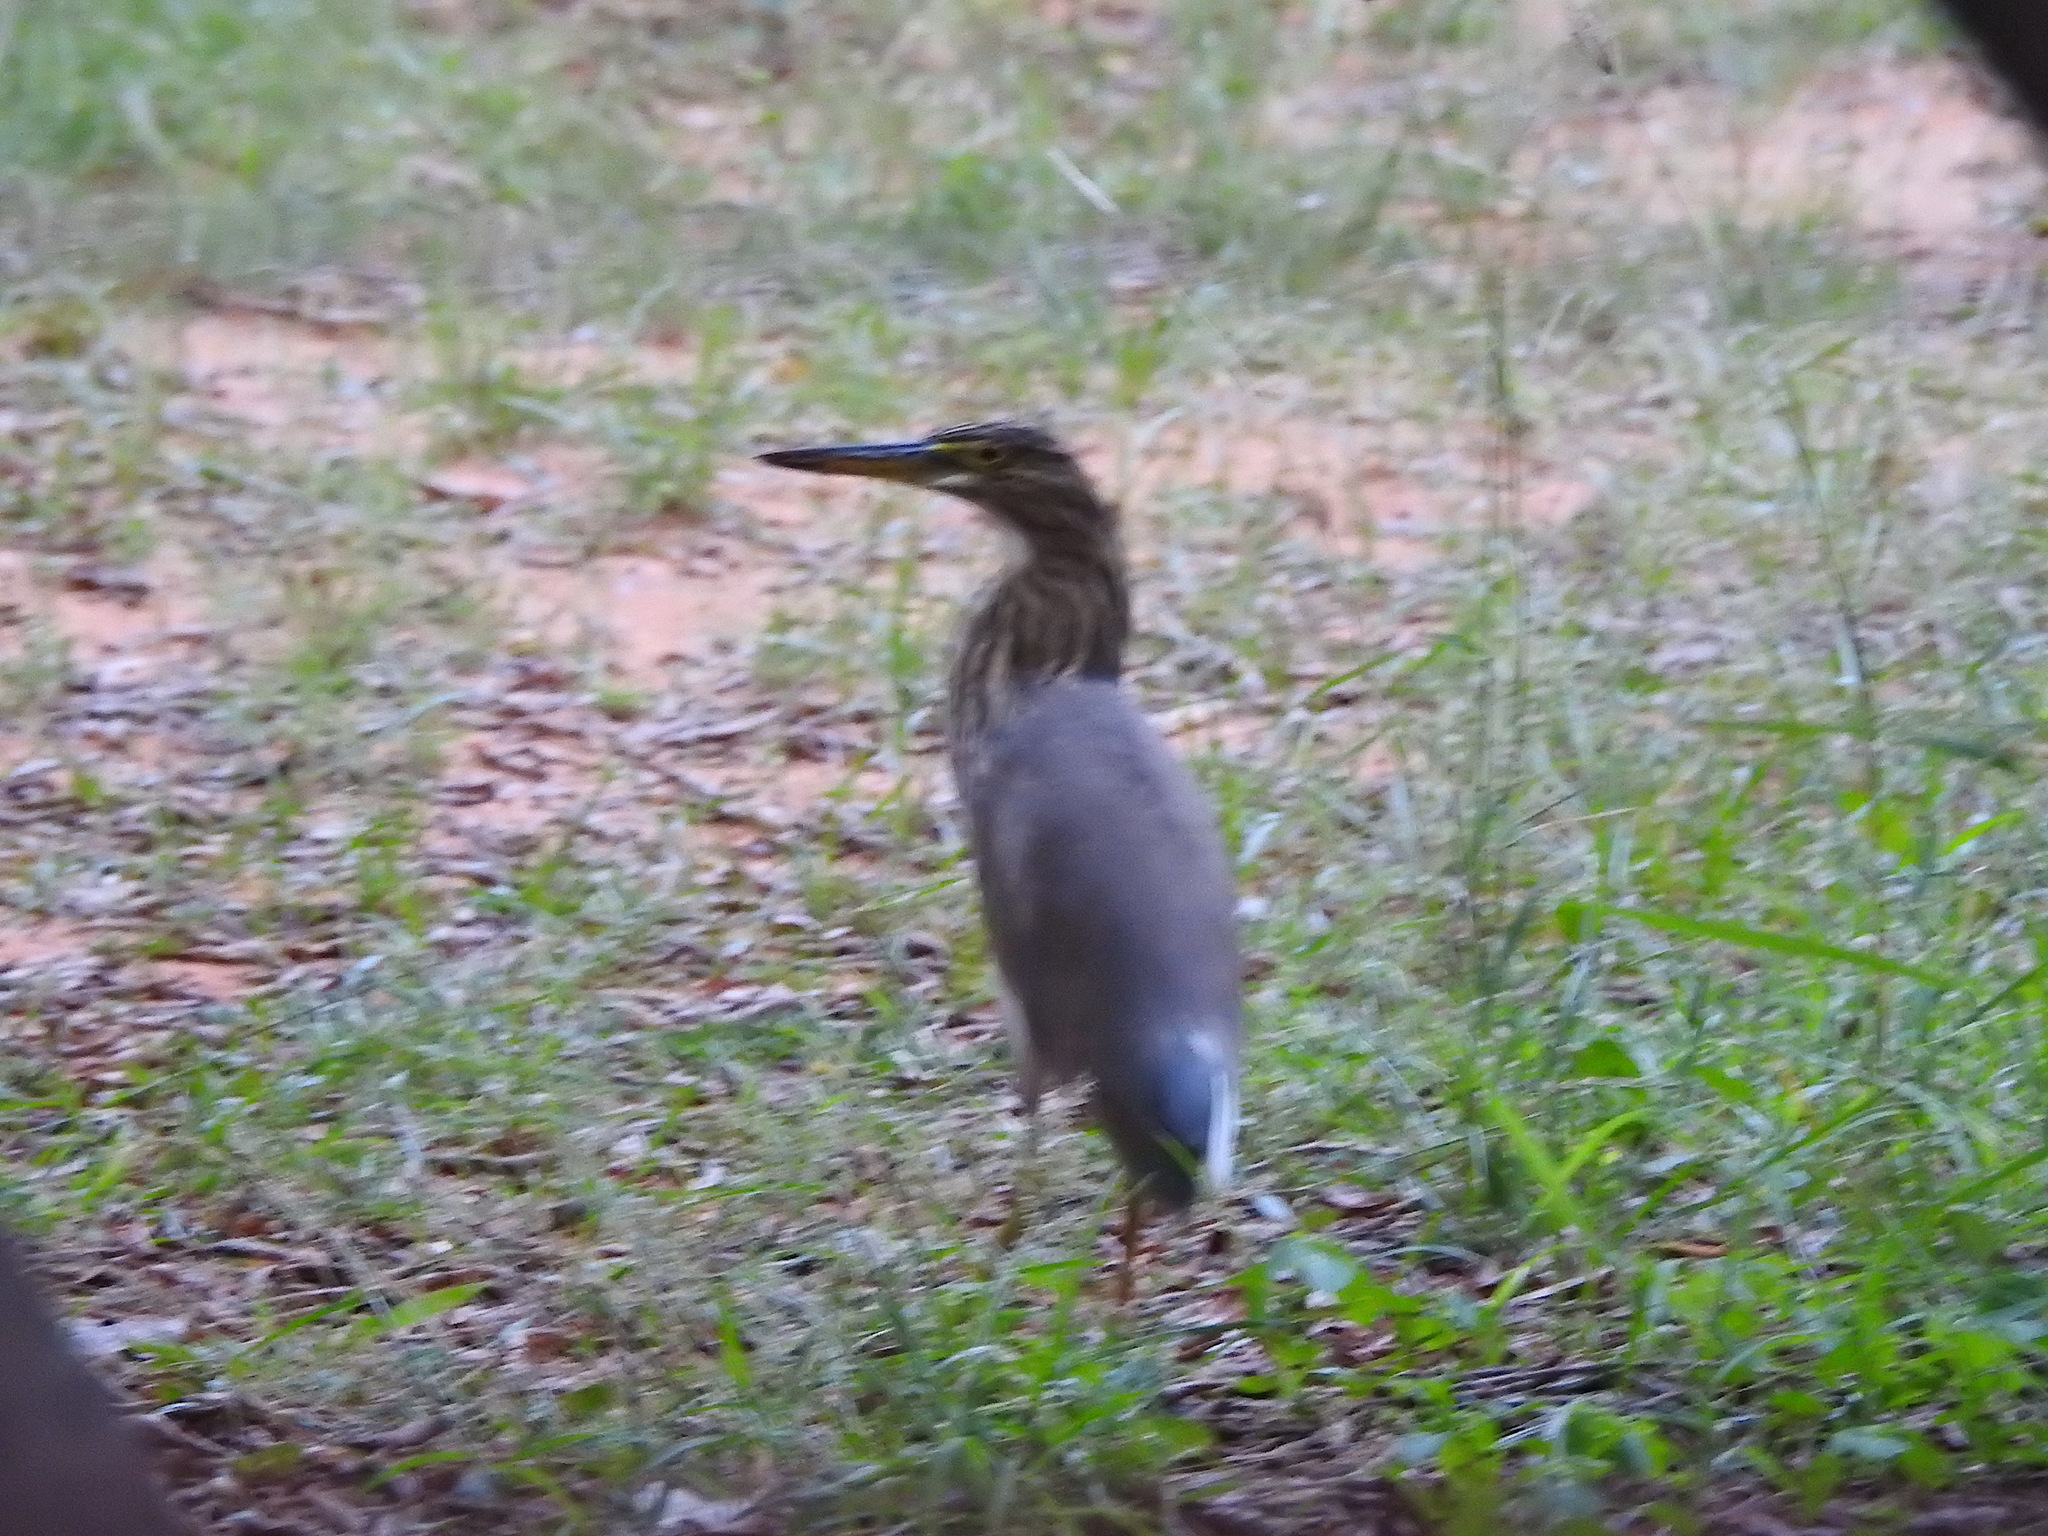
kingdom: Animalia
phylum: Chordata
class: Aves
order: Pelecaniformes
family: Ardeidae
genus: Ardeola
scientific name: Ardeola grayii
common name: Indian pond heron
